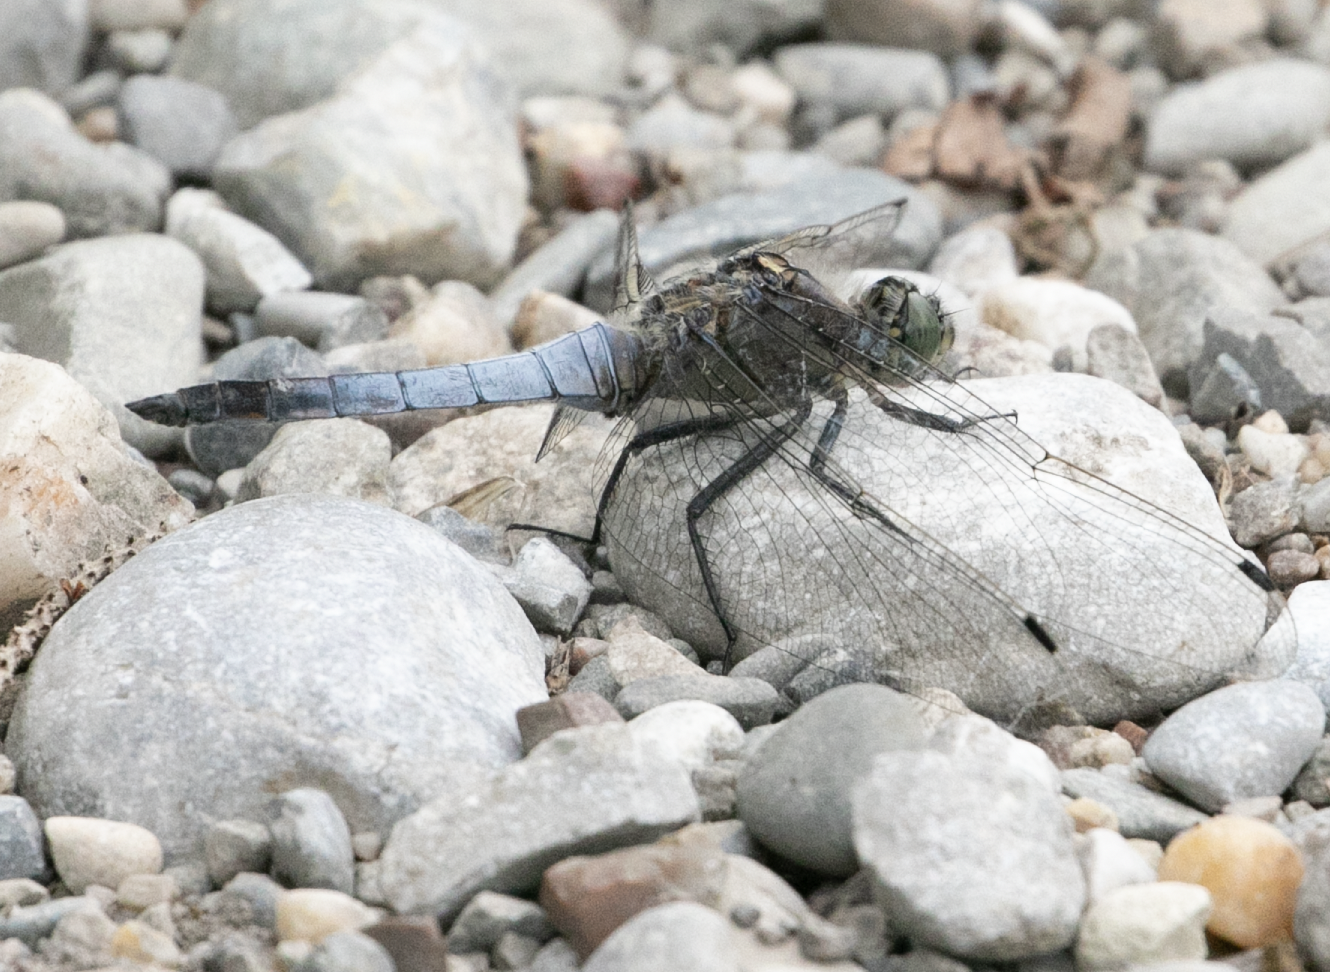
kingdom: Animalia
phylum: Arthropoda
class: Insecta
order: Odonata
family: Libellulidae
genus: Orthetrum
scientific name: Orthetrum cancellatum
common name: Black-tailed skimmer
